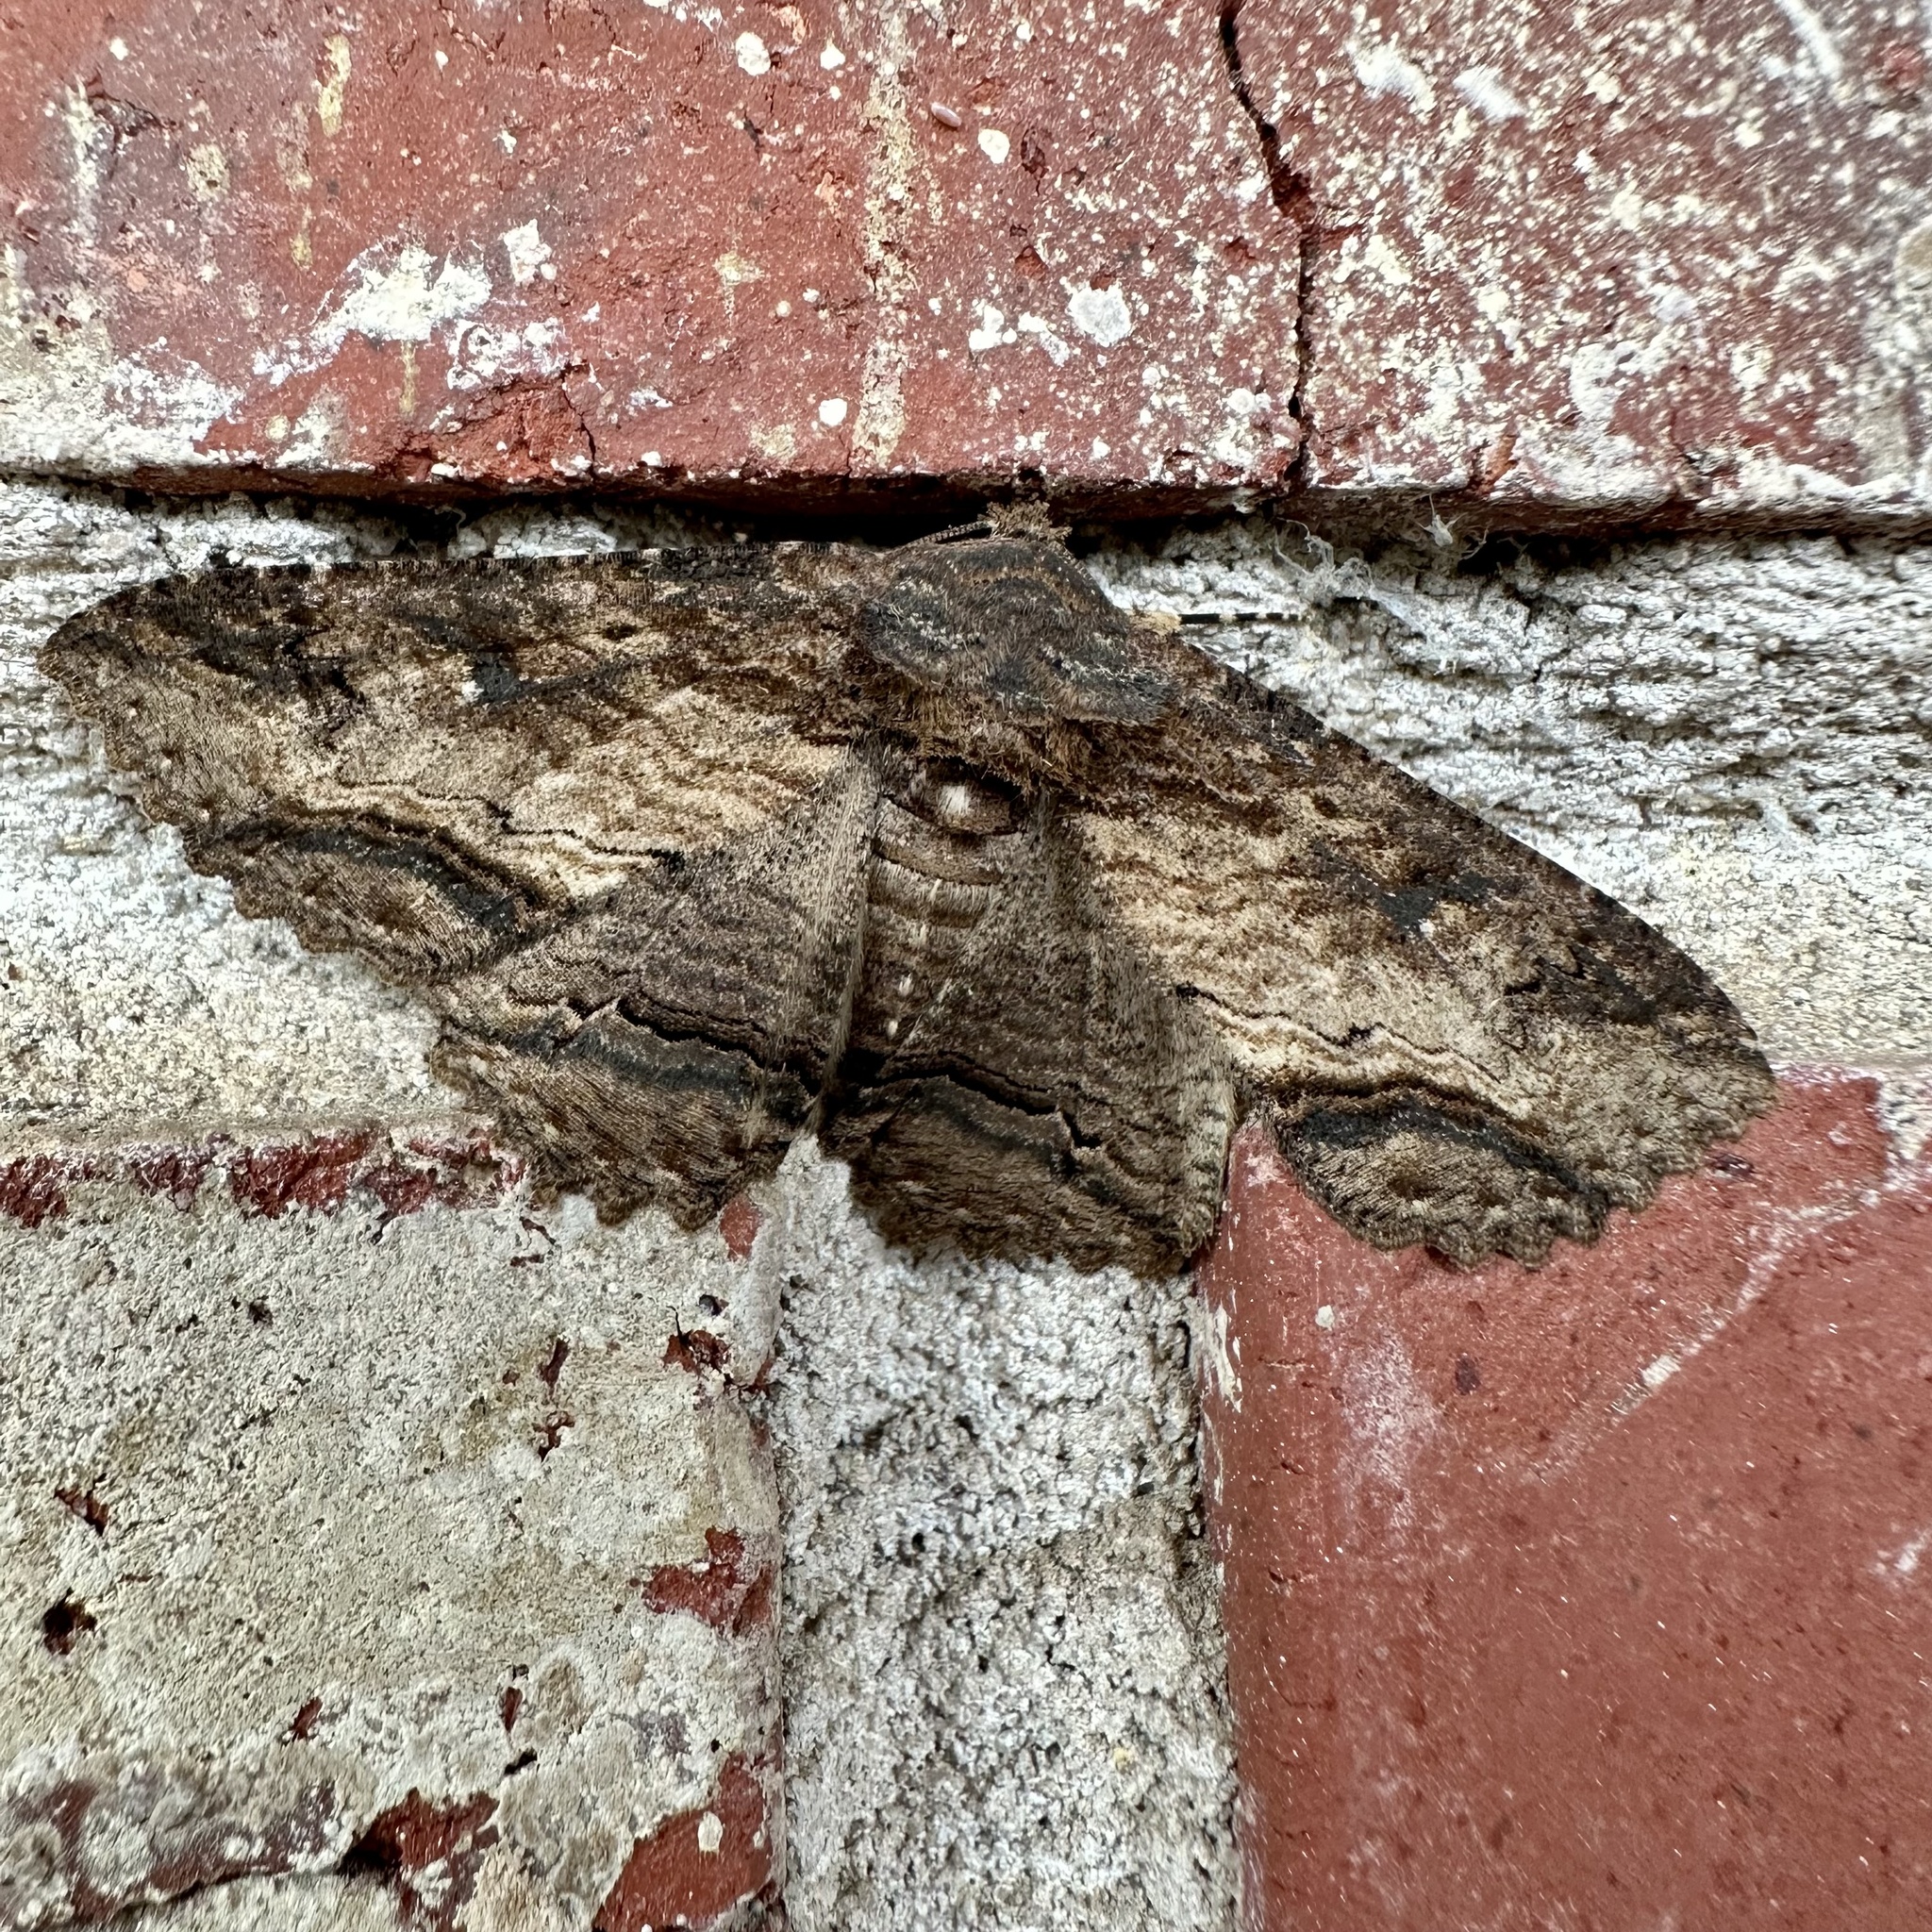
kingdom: Animalia
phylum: Arthropoda
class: Insecta
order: Lepidoptera
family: Erebidae
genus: Zale
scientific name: Zale lunata
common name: Lunate zale moth
